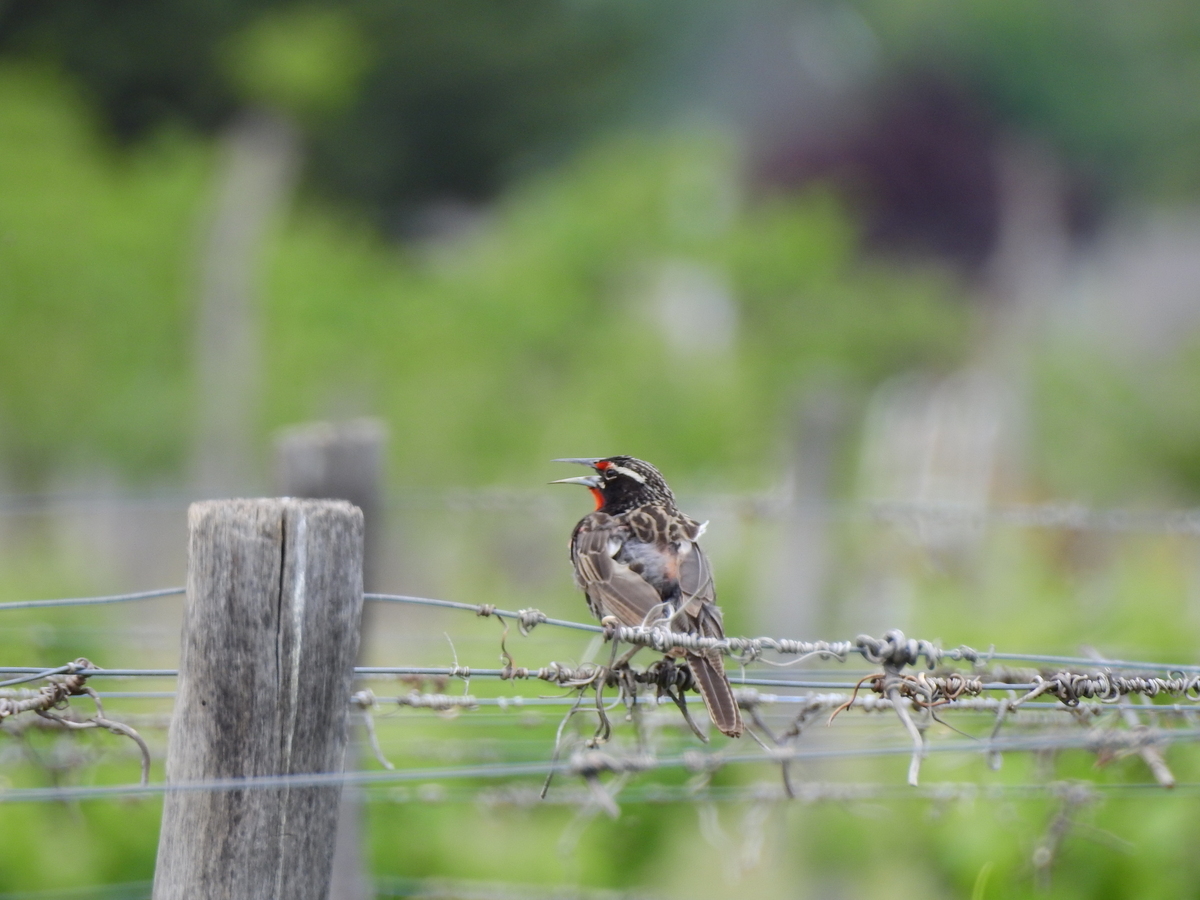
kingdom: Animalia
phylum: Chordata
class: Aves
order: Passeriformes
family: Icteridae
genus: Sturnella
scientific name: Sturnella loyca
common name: Long-tailed meadowlark
